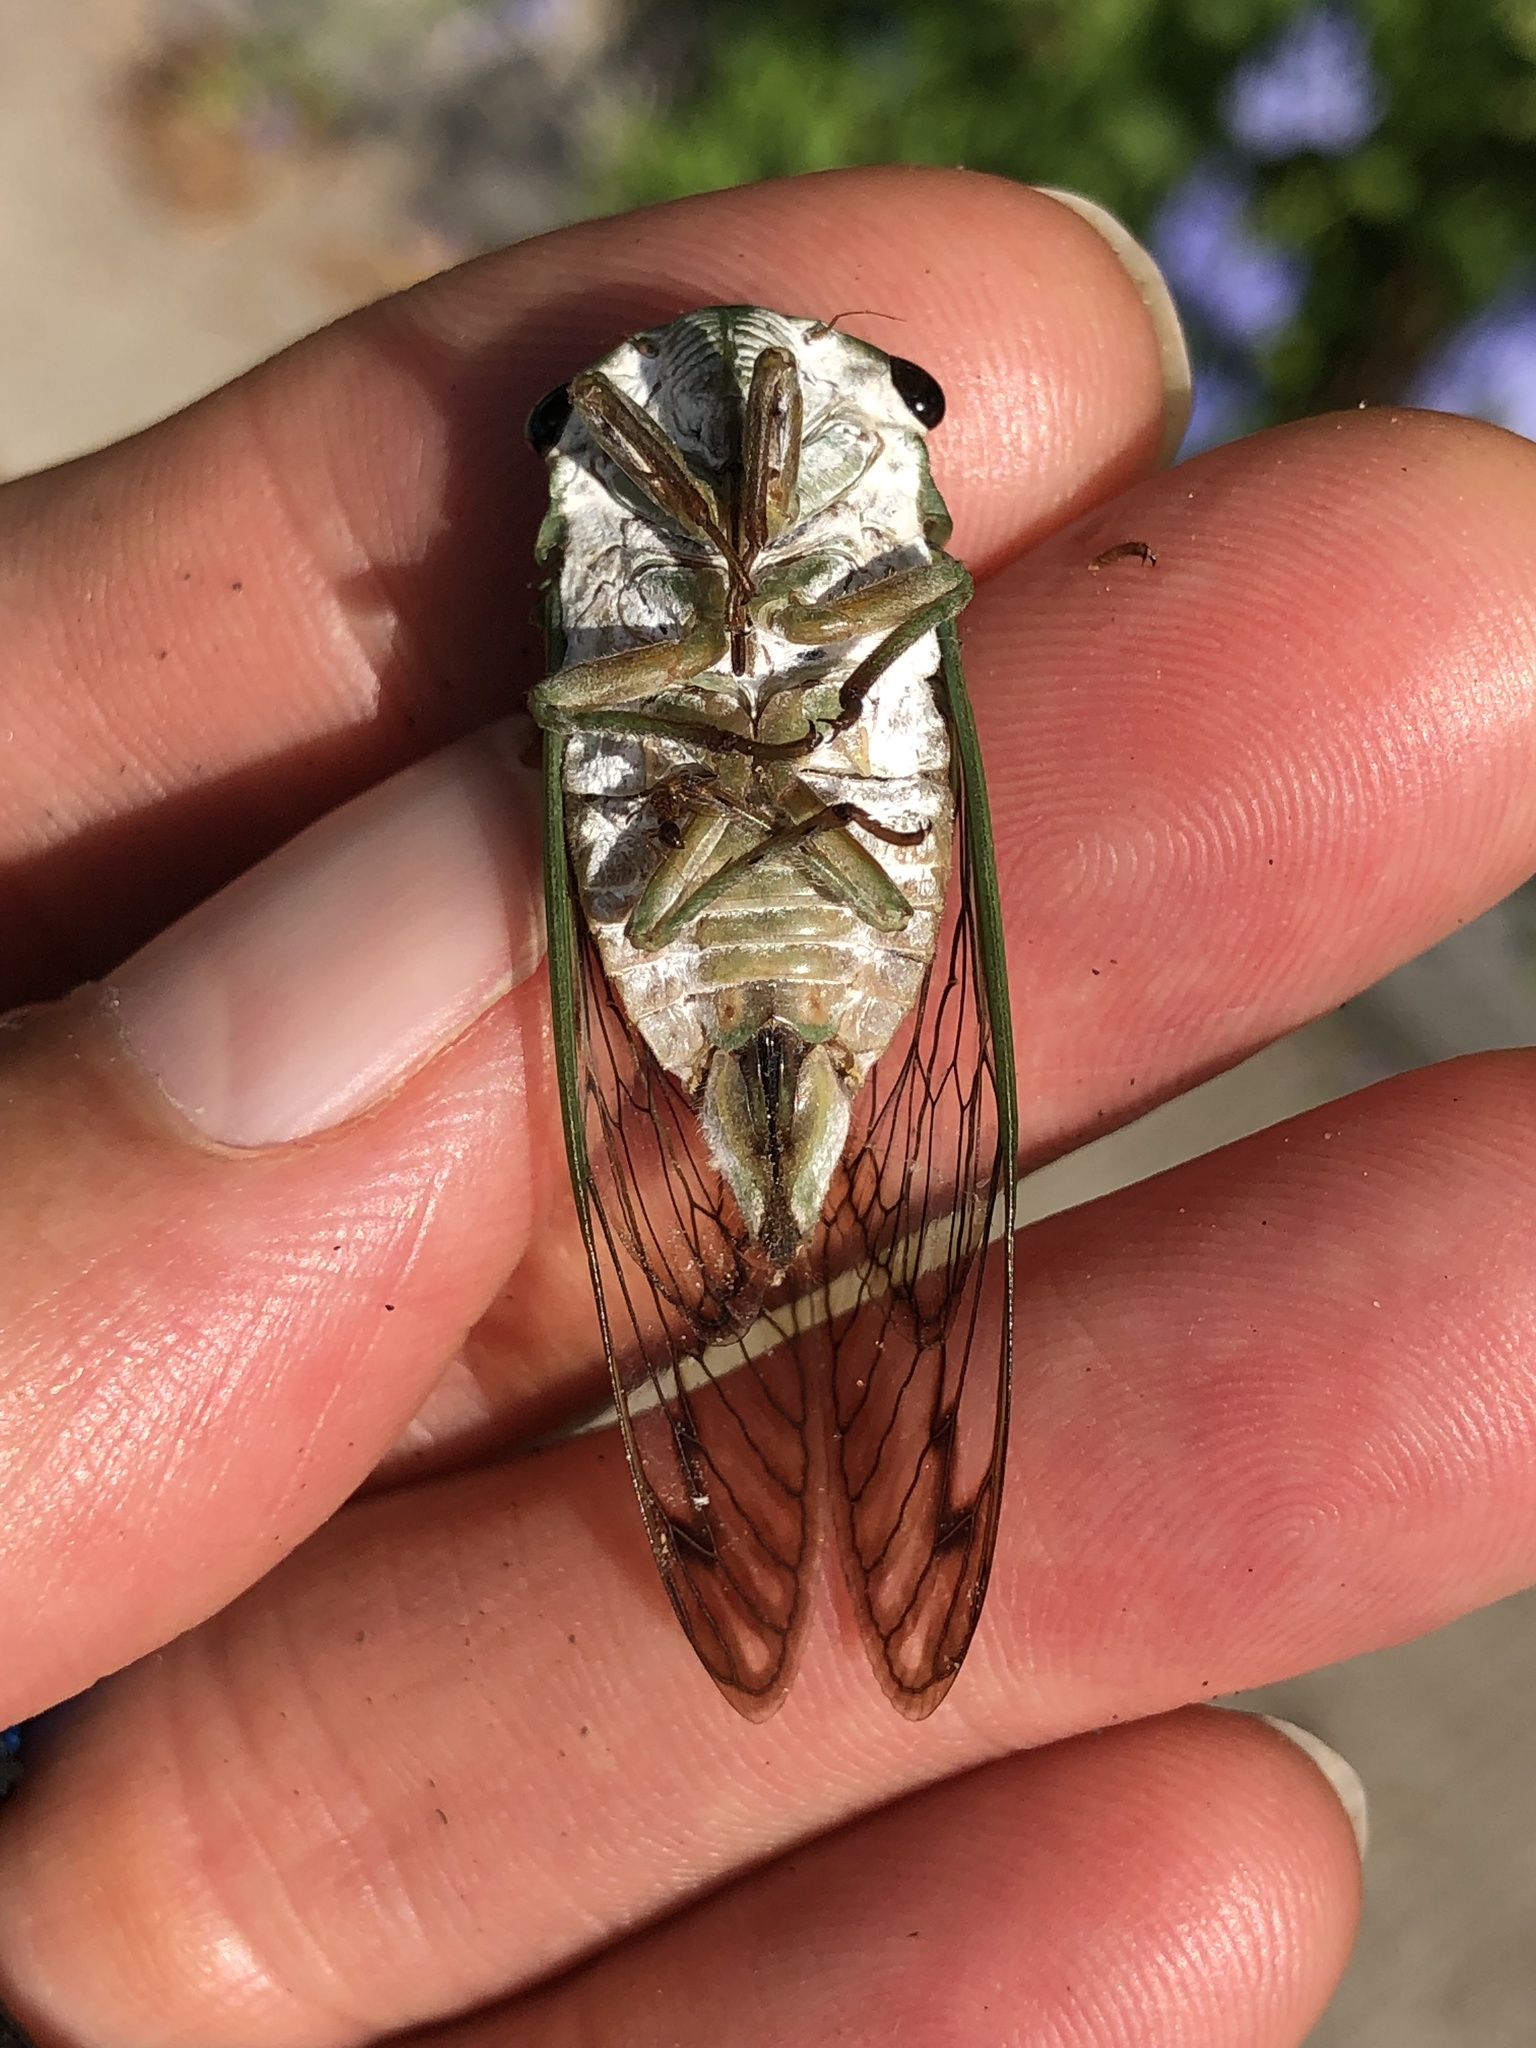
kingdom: Animalia
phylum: Arthropoda
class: Insecta
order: Hemiptera
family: Cicadidae
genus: Neotibicen
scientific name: Neotibicen superbus
